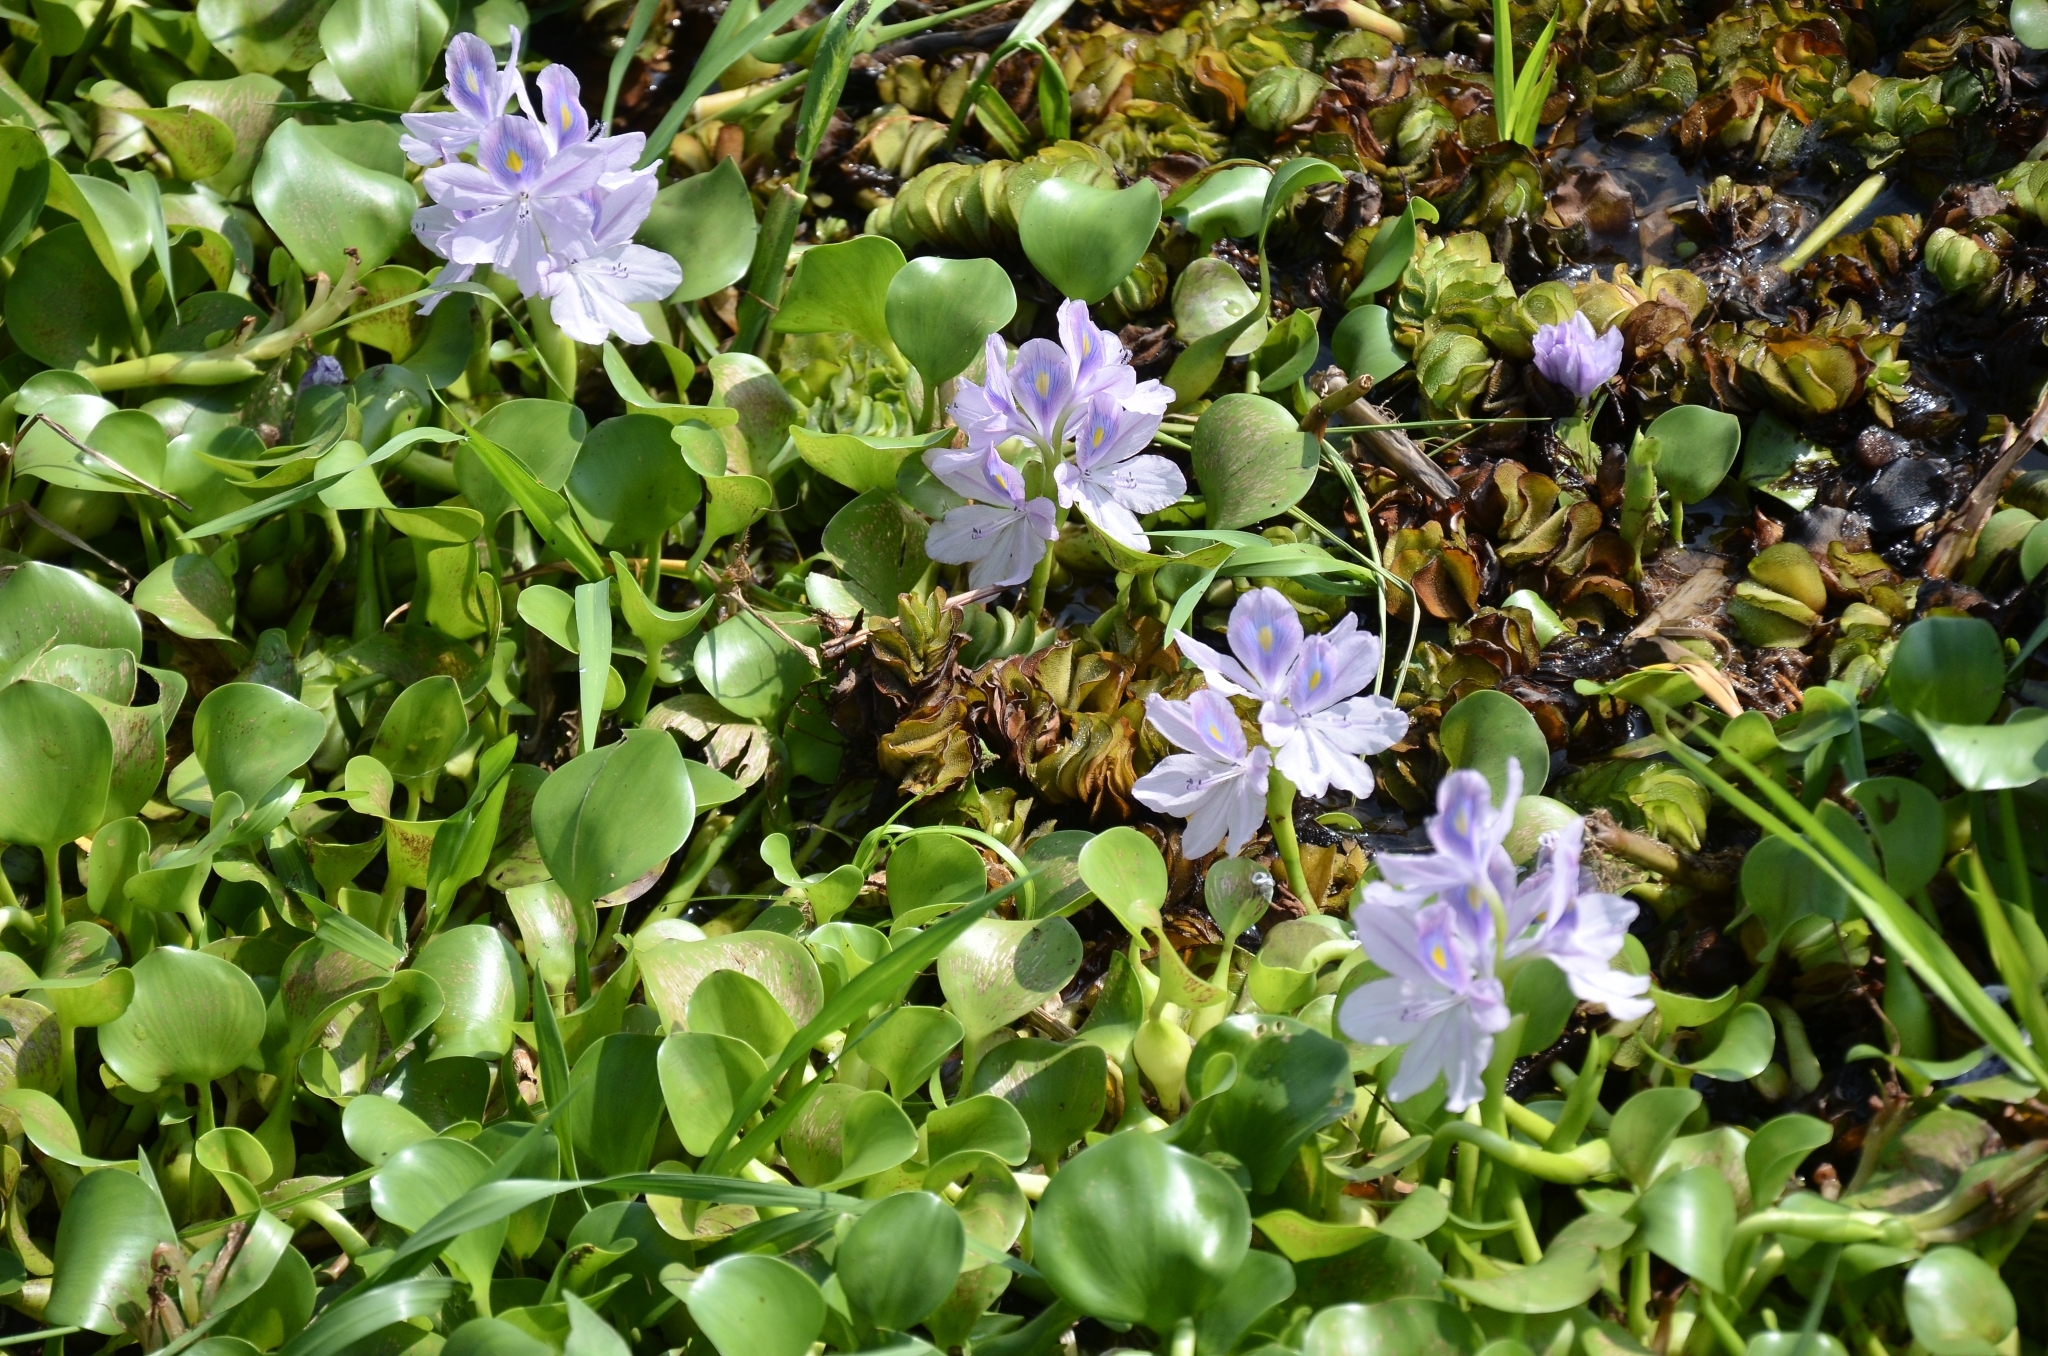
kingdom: Plantae
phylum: Tracheophyta
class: Liliopsida
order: Commelinales
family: Pontederiaceae
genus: Pontederia
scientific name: Pontederia crassipes
